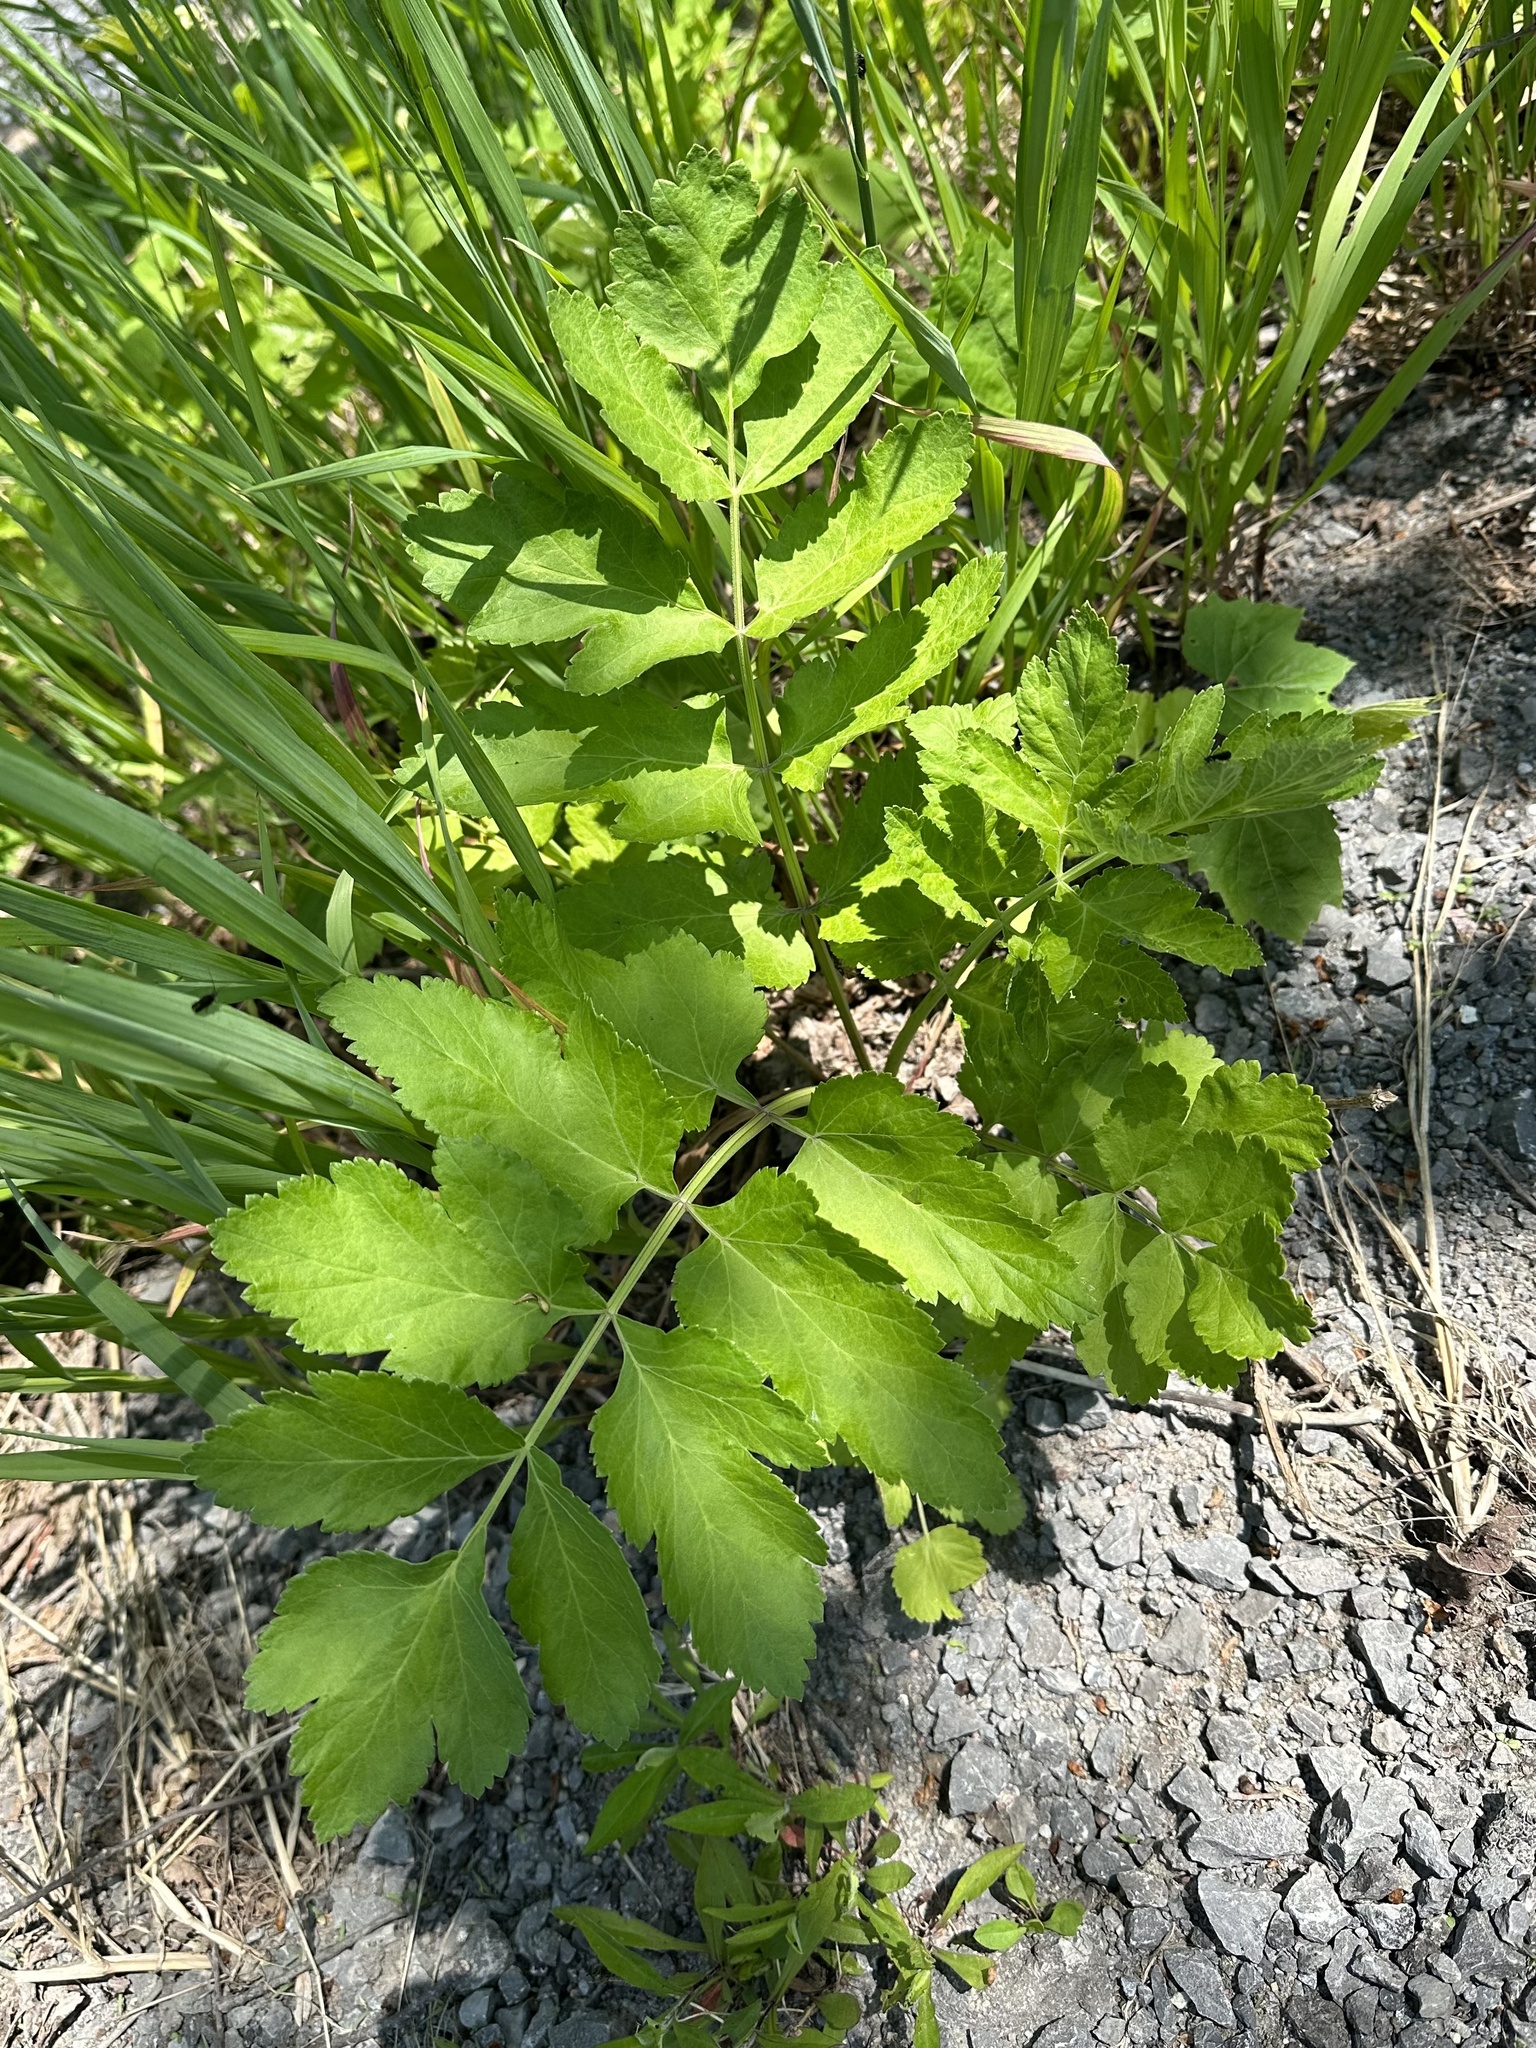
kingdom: Plantae
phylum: Tracheophyta
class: Magnoliopsida
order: Apiales
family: Apiaceae
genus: Pastinaca
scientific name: Pastinaca sativa
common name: Wild parsnip
